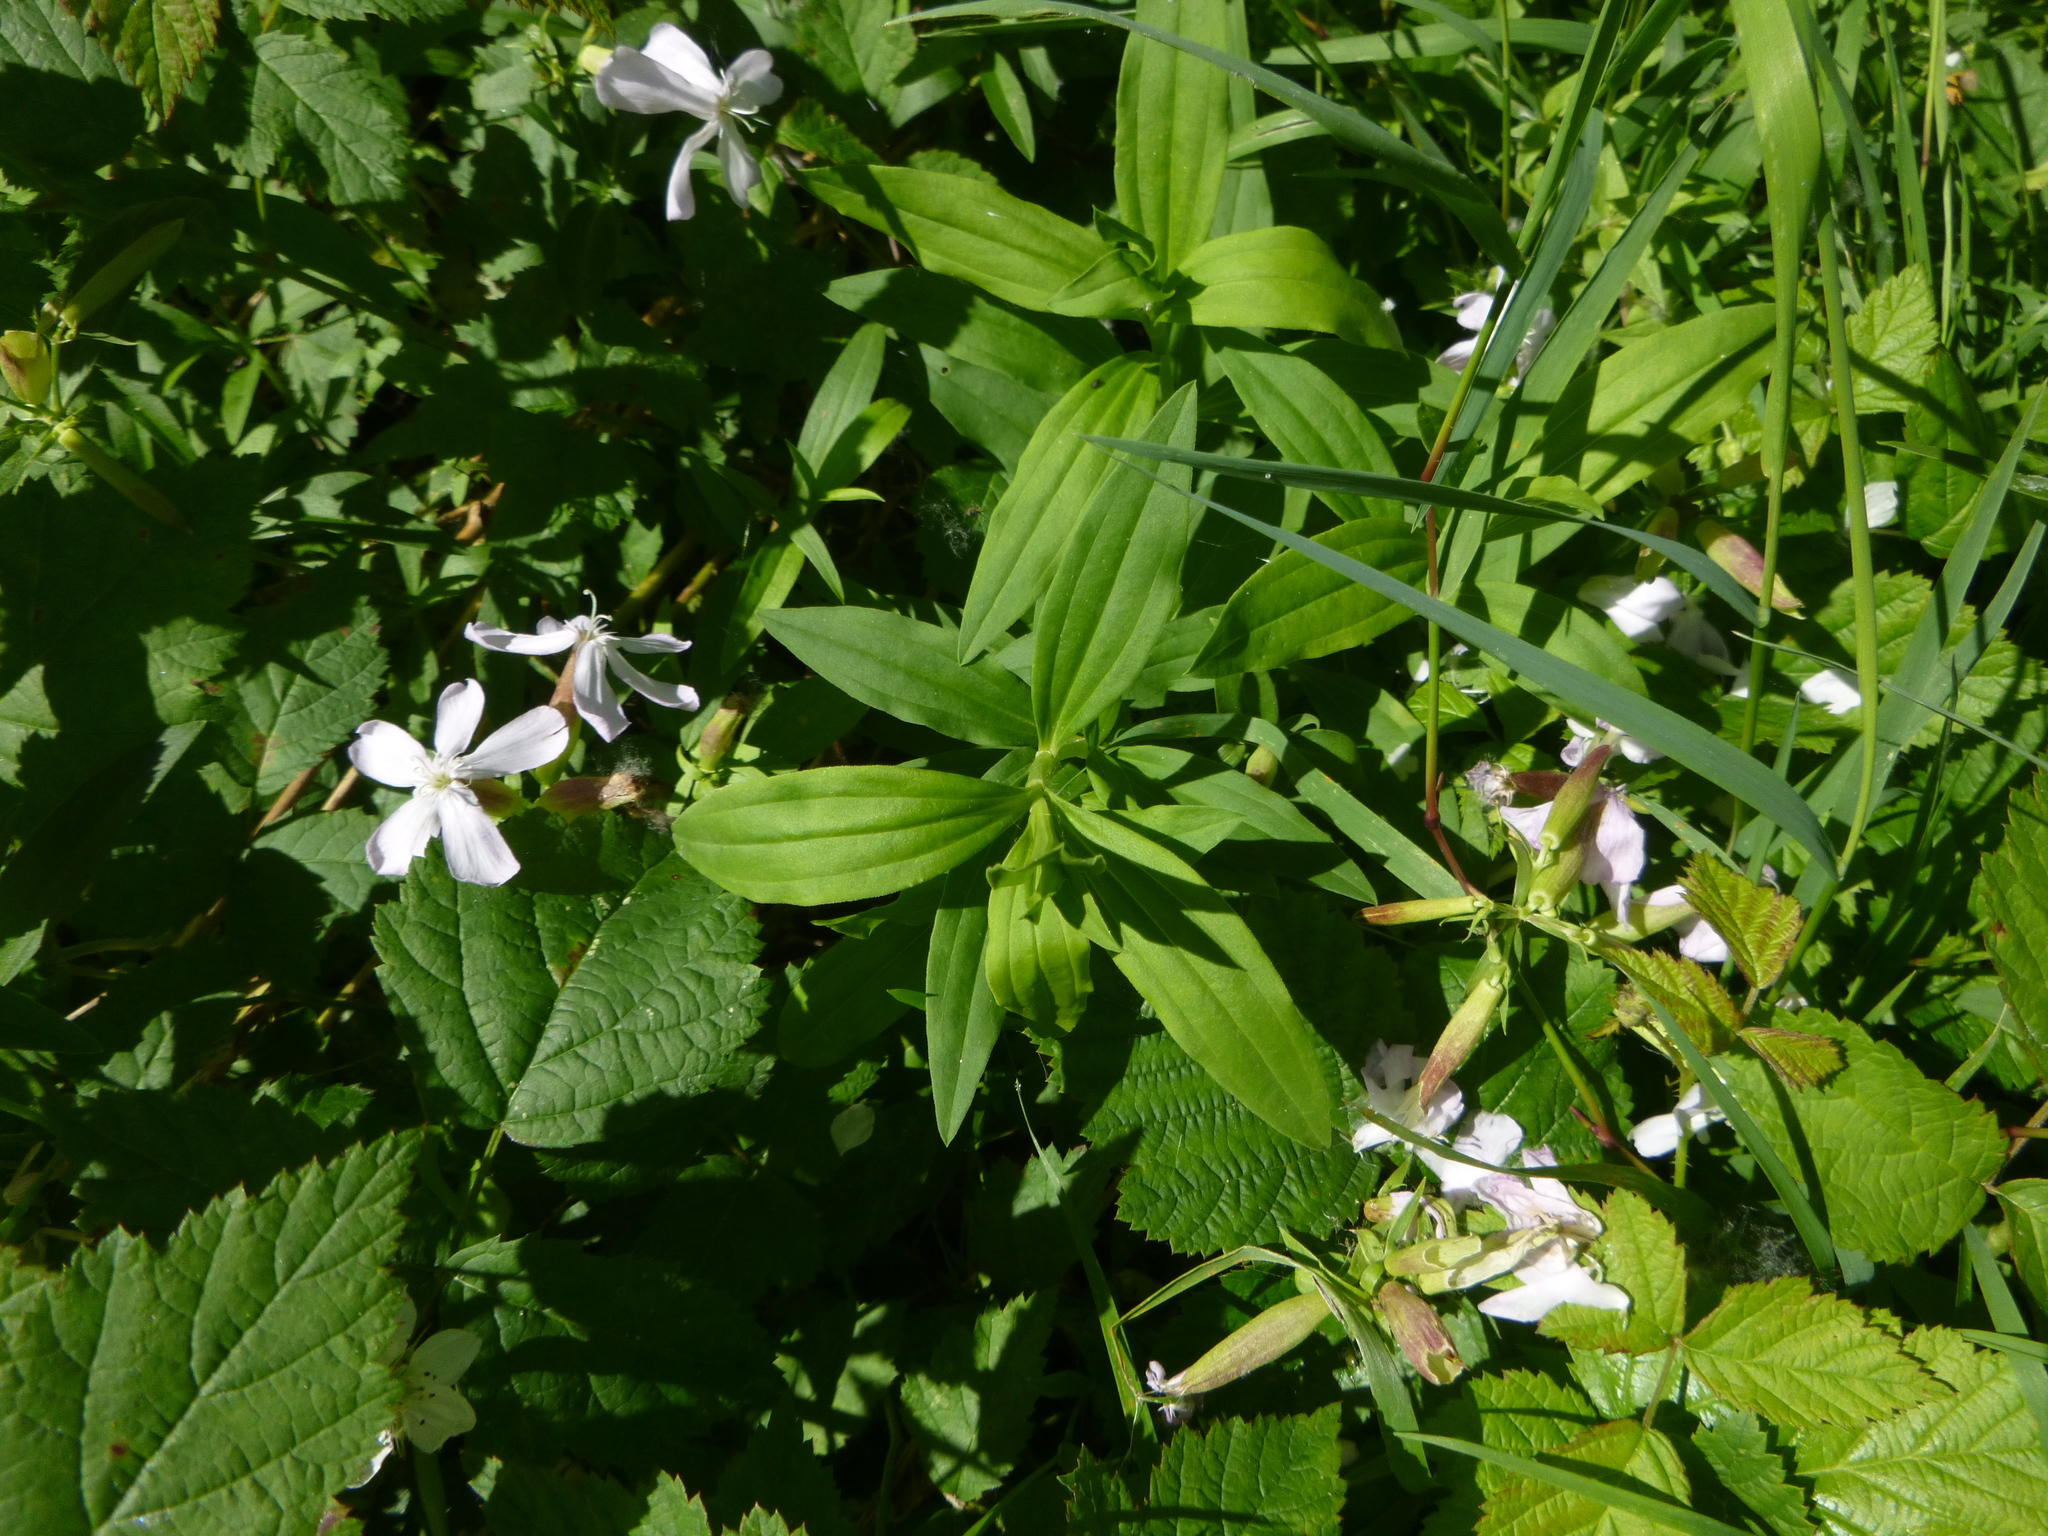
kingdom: Plantae
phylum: Tracheophyta
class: Magnoliopsida
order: Caryophyllales
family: Caryophyllaceae
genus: Saponaria
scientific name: Saponaria officinalis
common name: Soapwort
